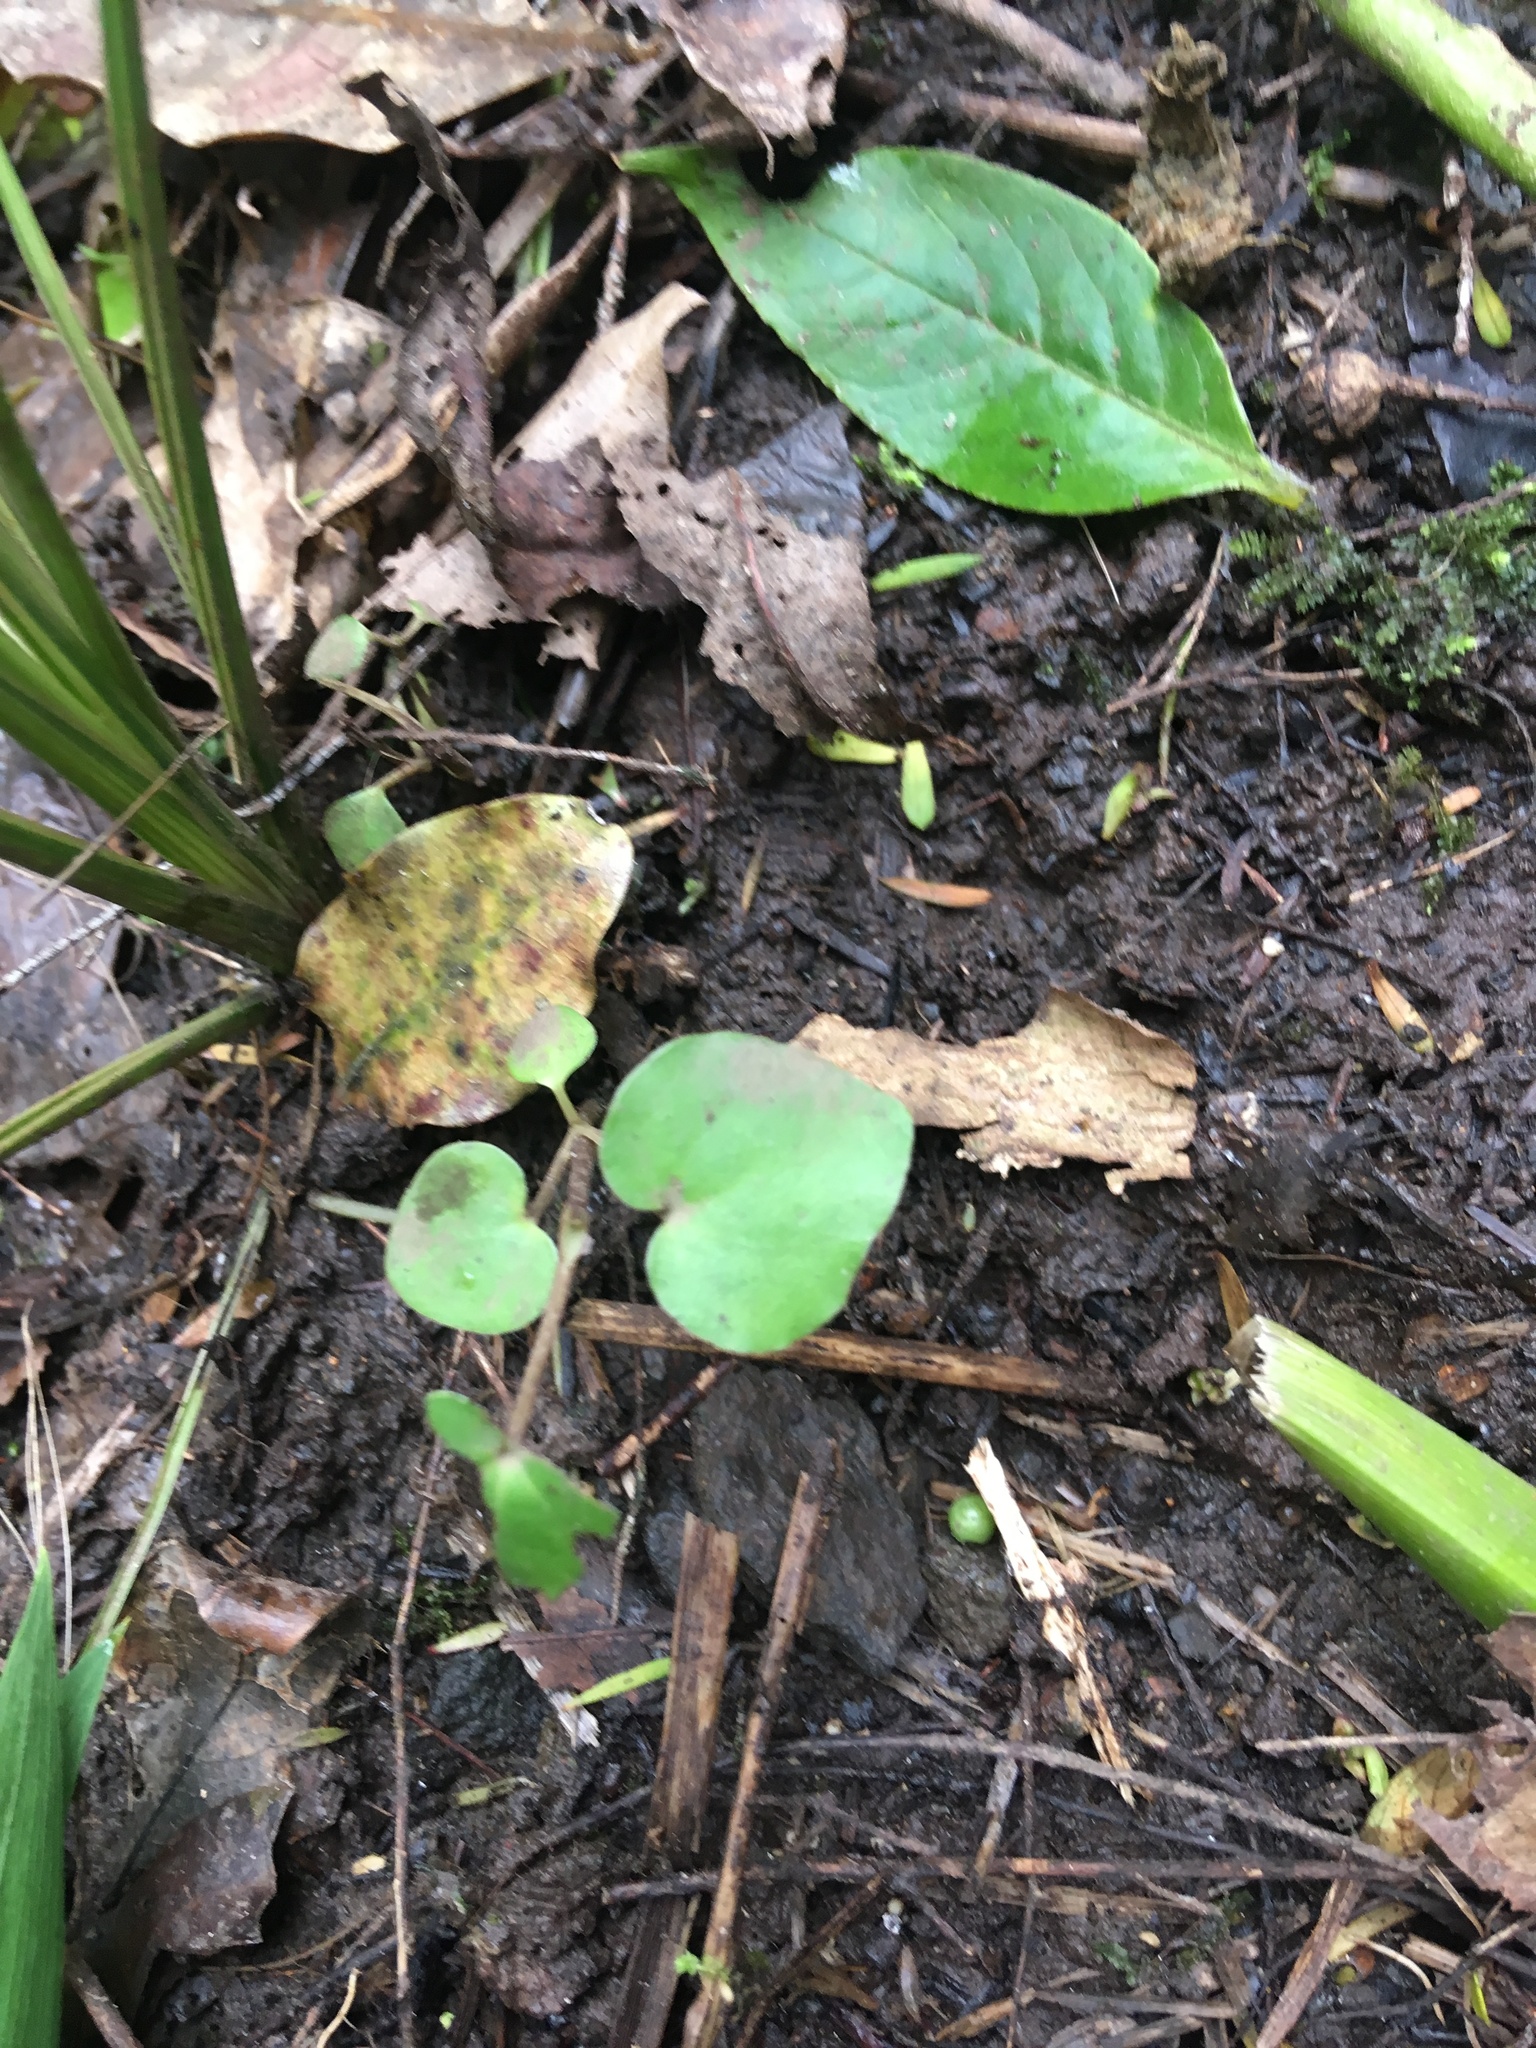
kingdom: Plantae
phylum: Tracheophyta
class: Magnoliopsida
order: Piperales
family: Piperaceae
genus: Macropiper
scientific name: Macropiper excelsum
